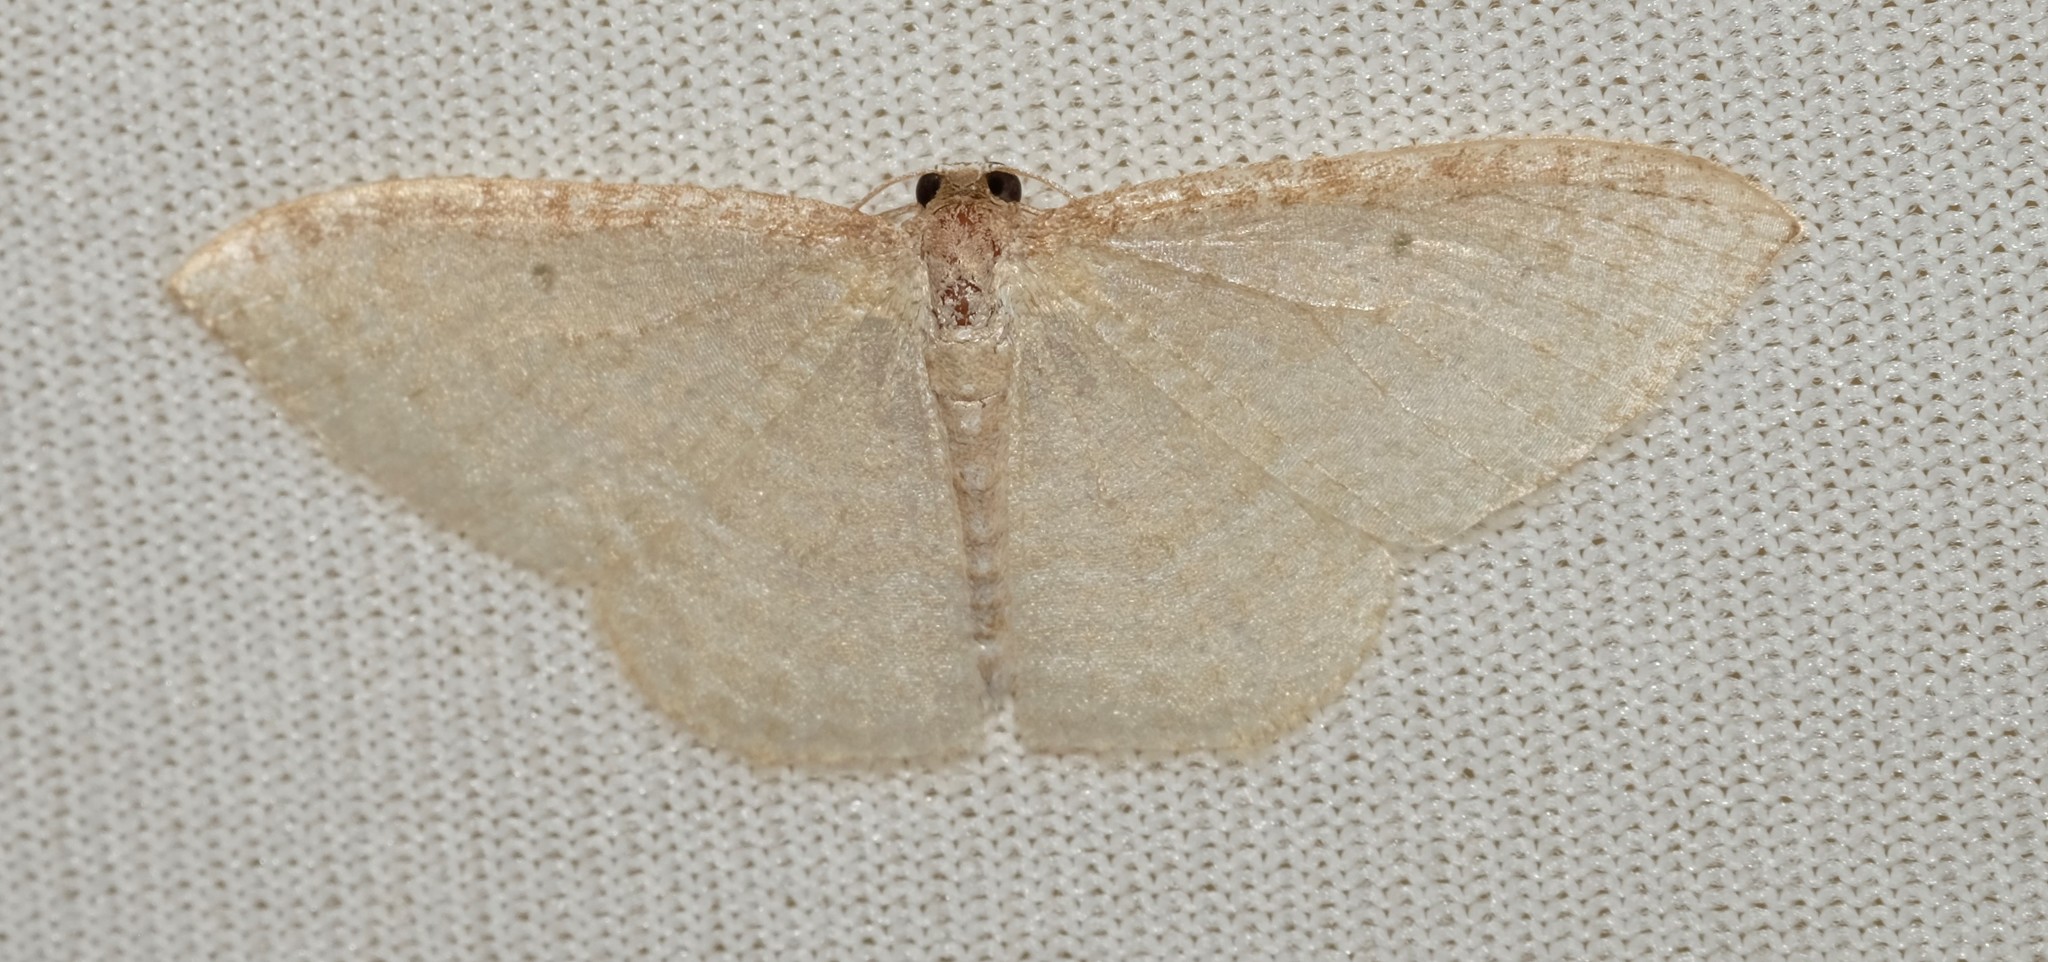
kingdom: Animalia
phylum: Arthropoda
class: Insecta
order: Lepidoptera
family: Geometridae
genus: Poecilasthena
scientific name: Poecilasthena pulchraria
